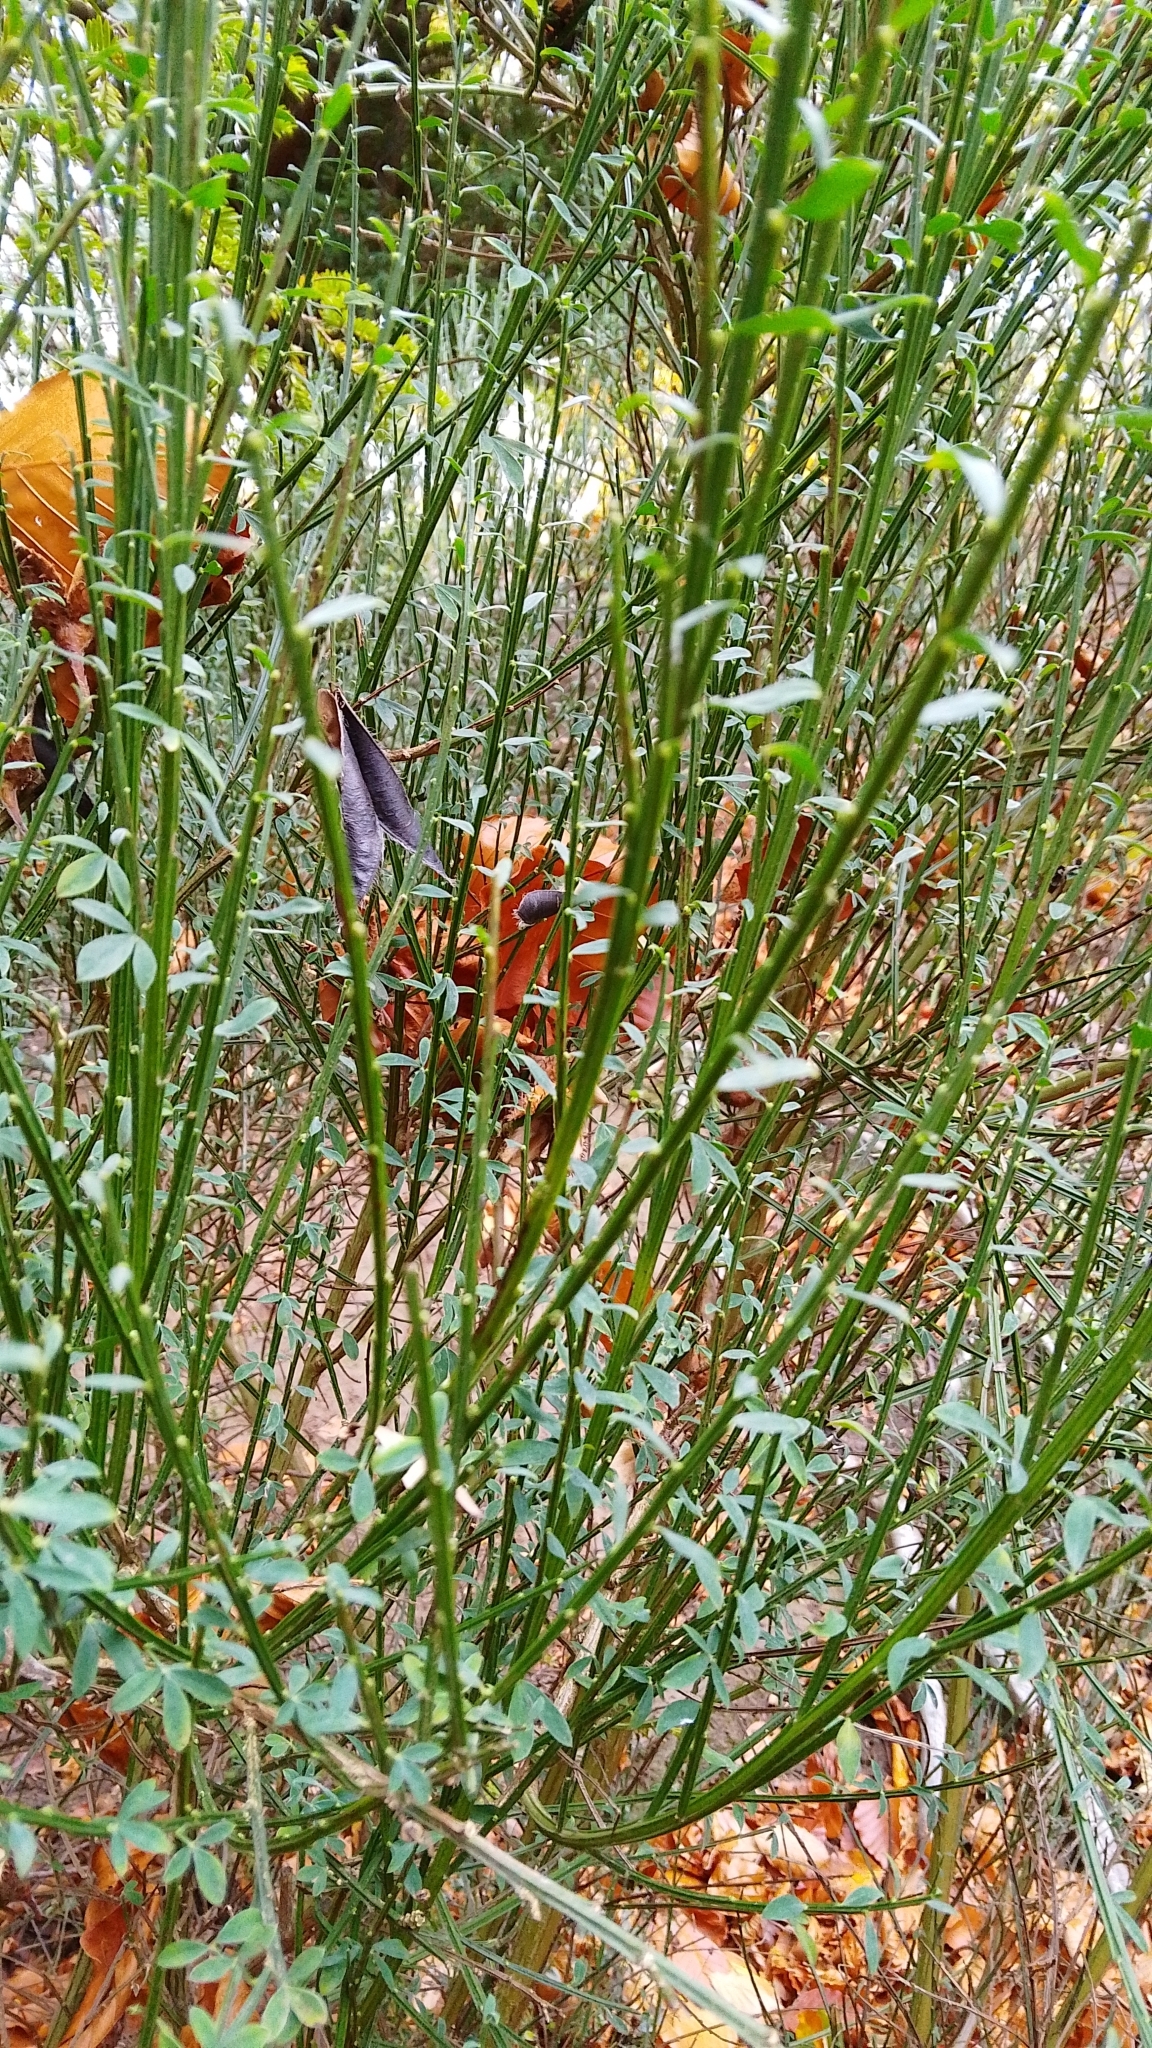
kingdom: Plantae
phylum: Tracheophyta
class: Magnoliopsida
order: Fabales
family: Fabaceae
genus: Cytisus
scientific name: Cytisus scoparius
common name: Scotch broom
